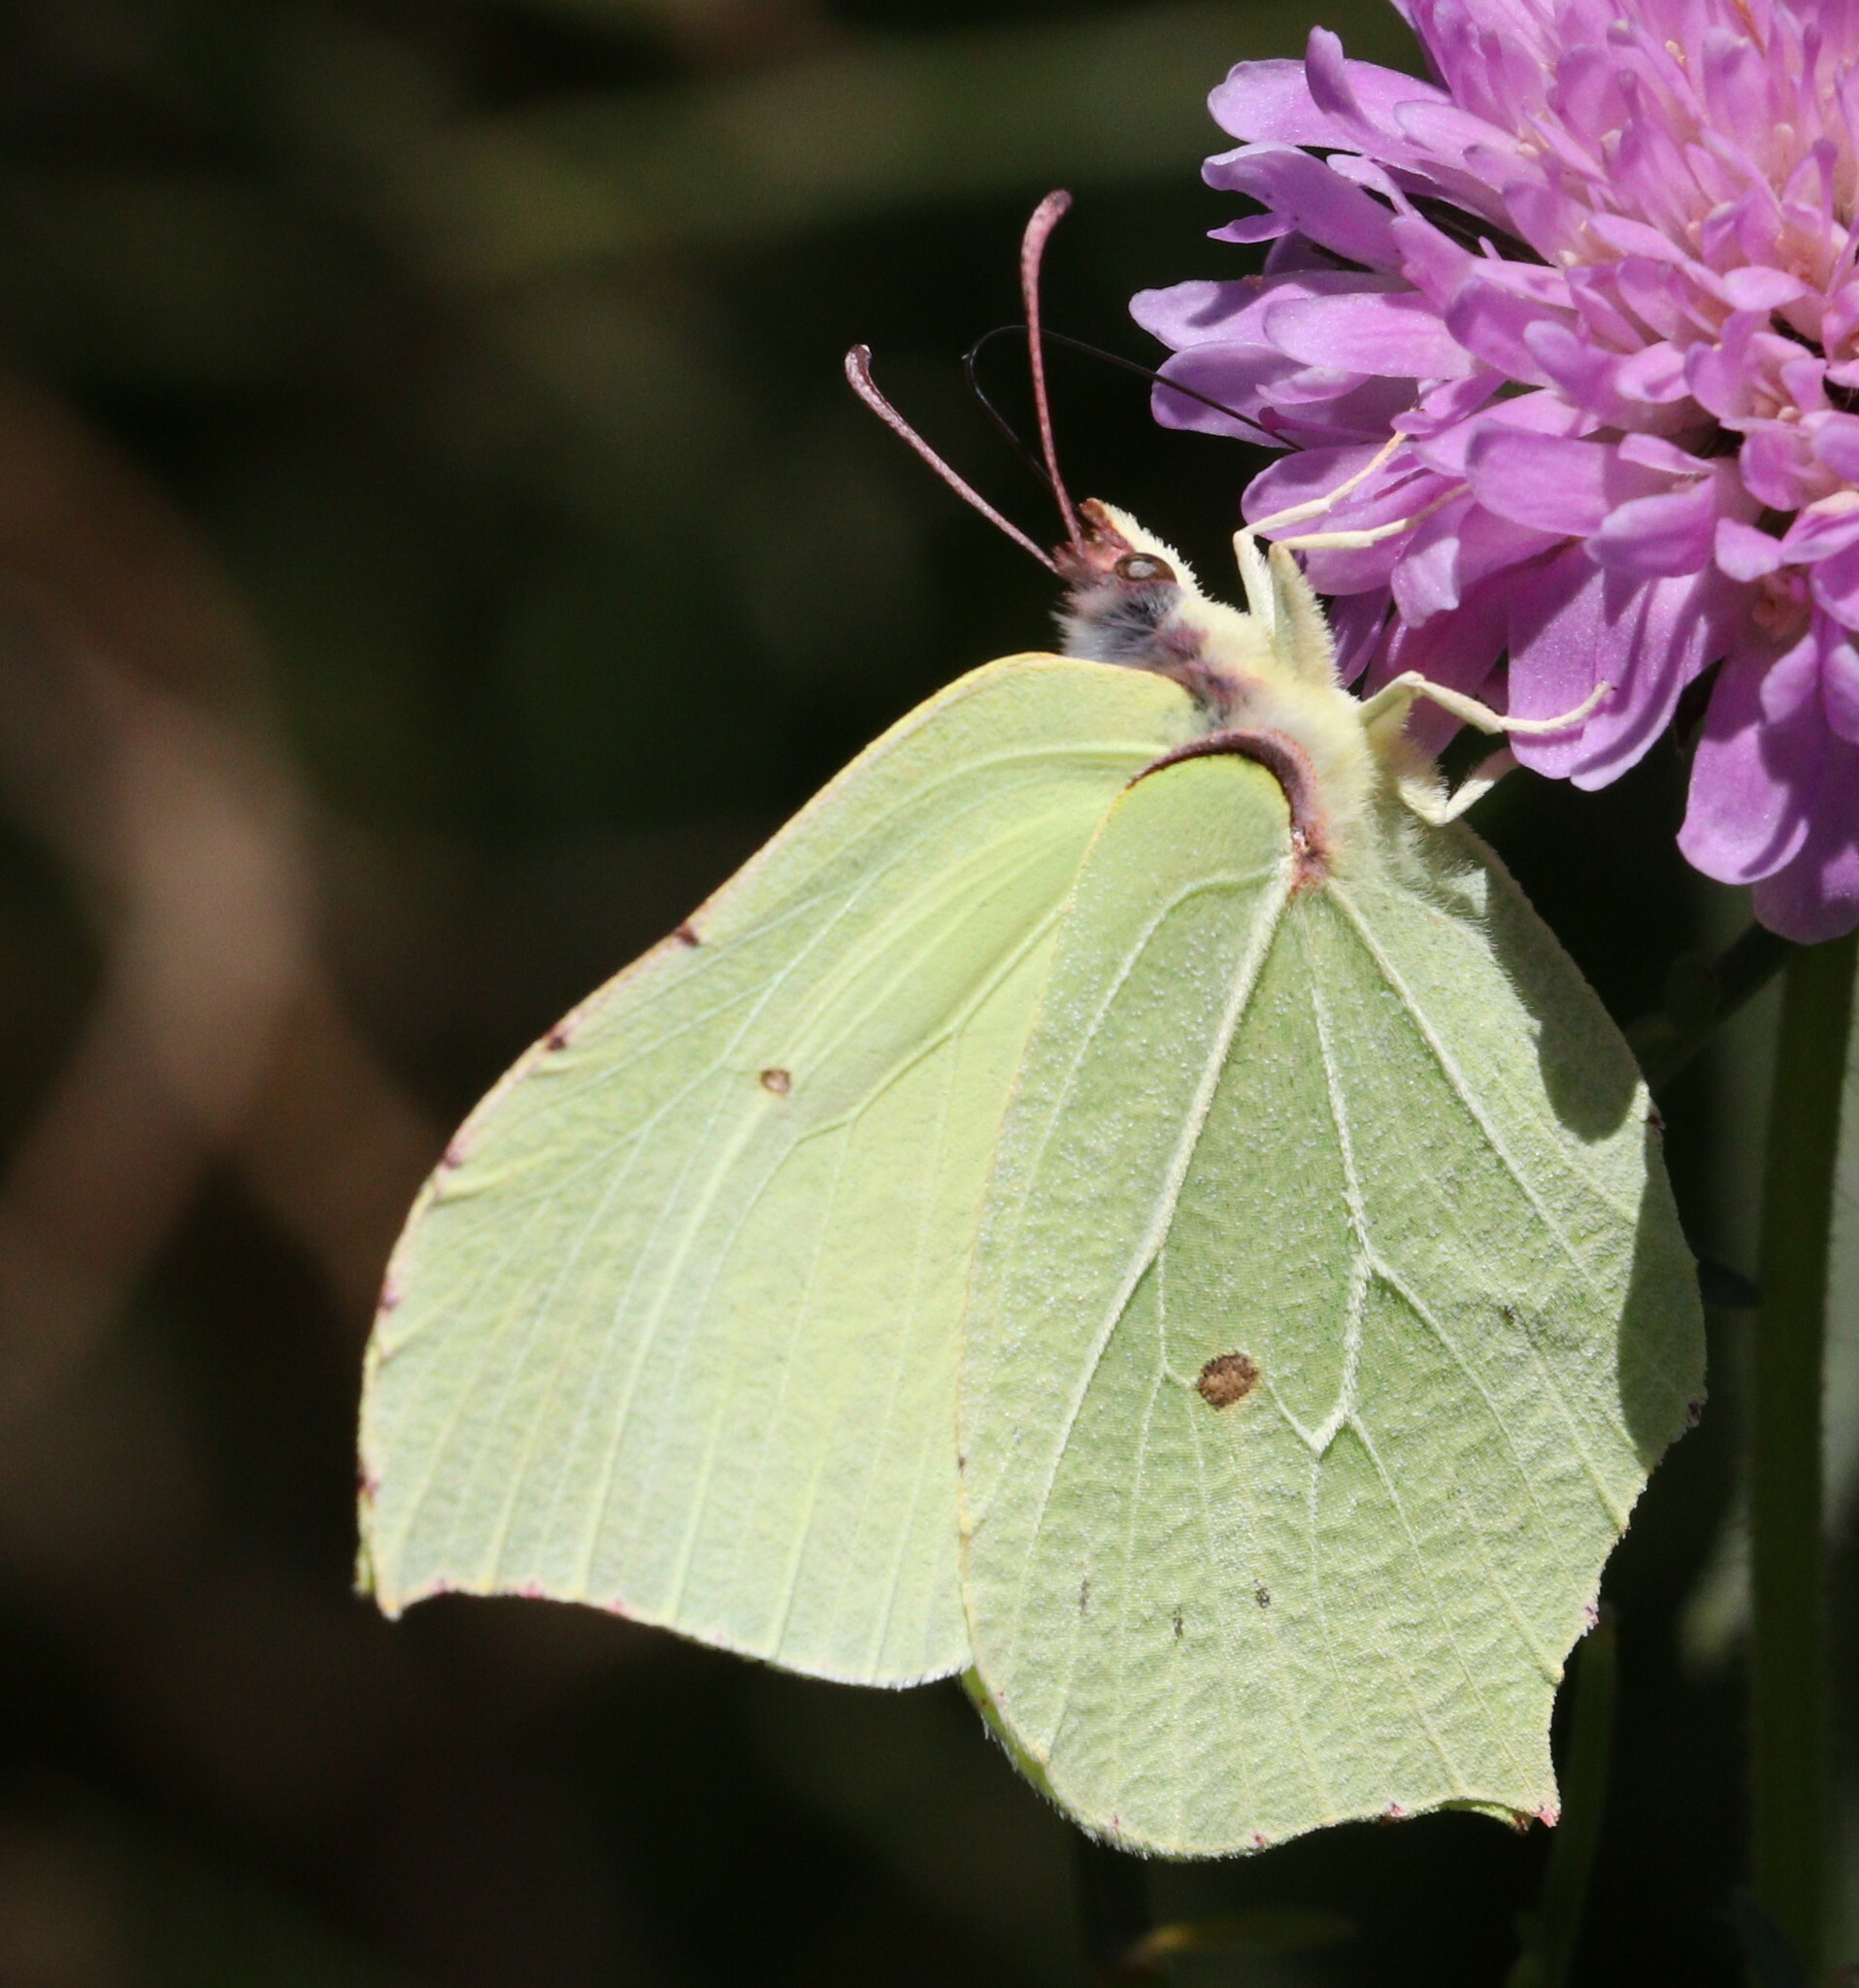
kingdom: Animalia
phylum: Arthropoda
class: Insecta
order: Lepidoptera
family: Pieridae
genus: Gonepteryx
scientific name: Gonepteryx rhamni
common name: Brimstone
